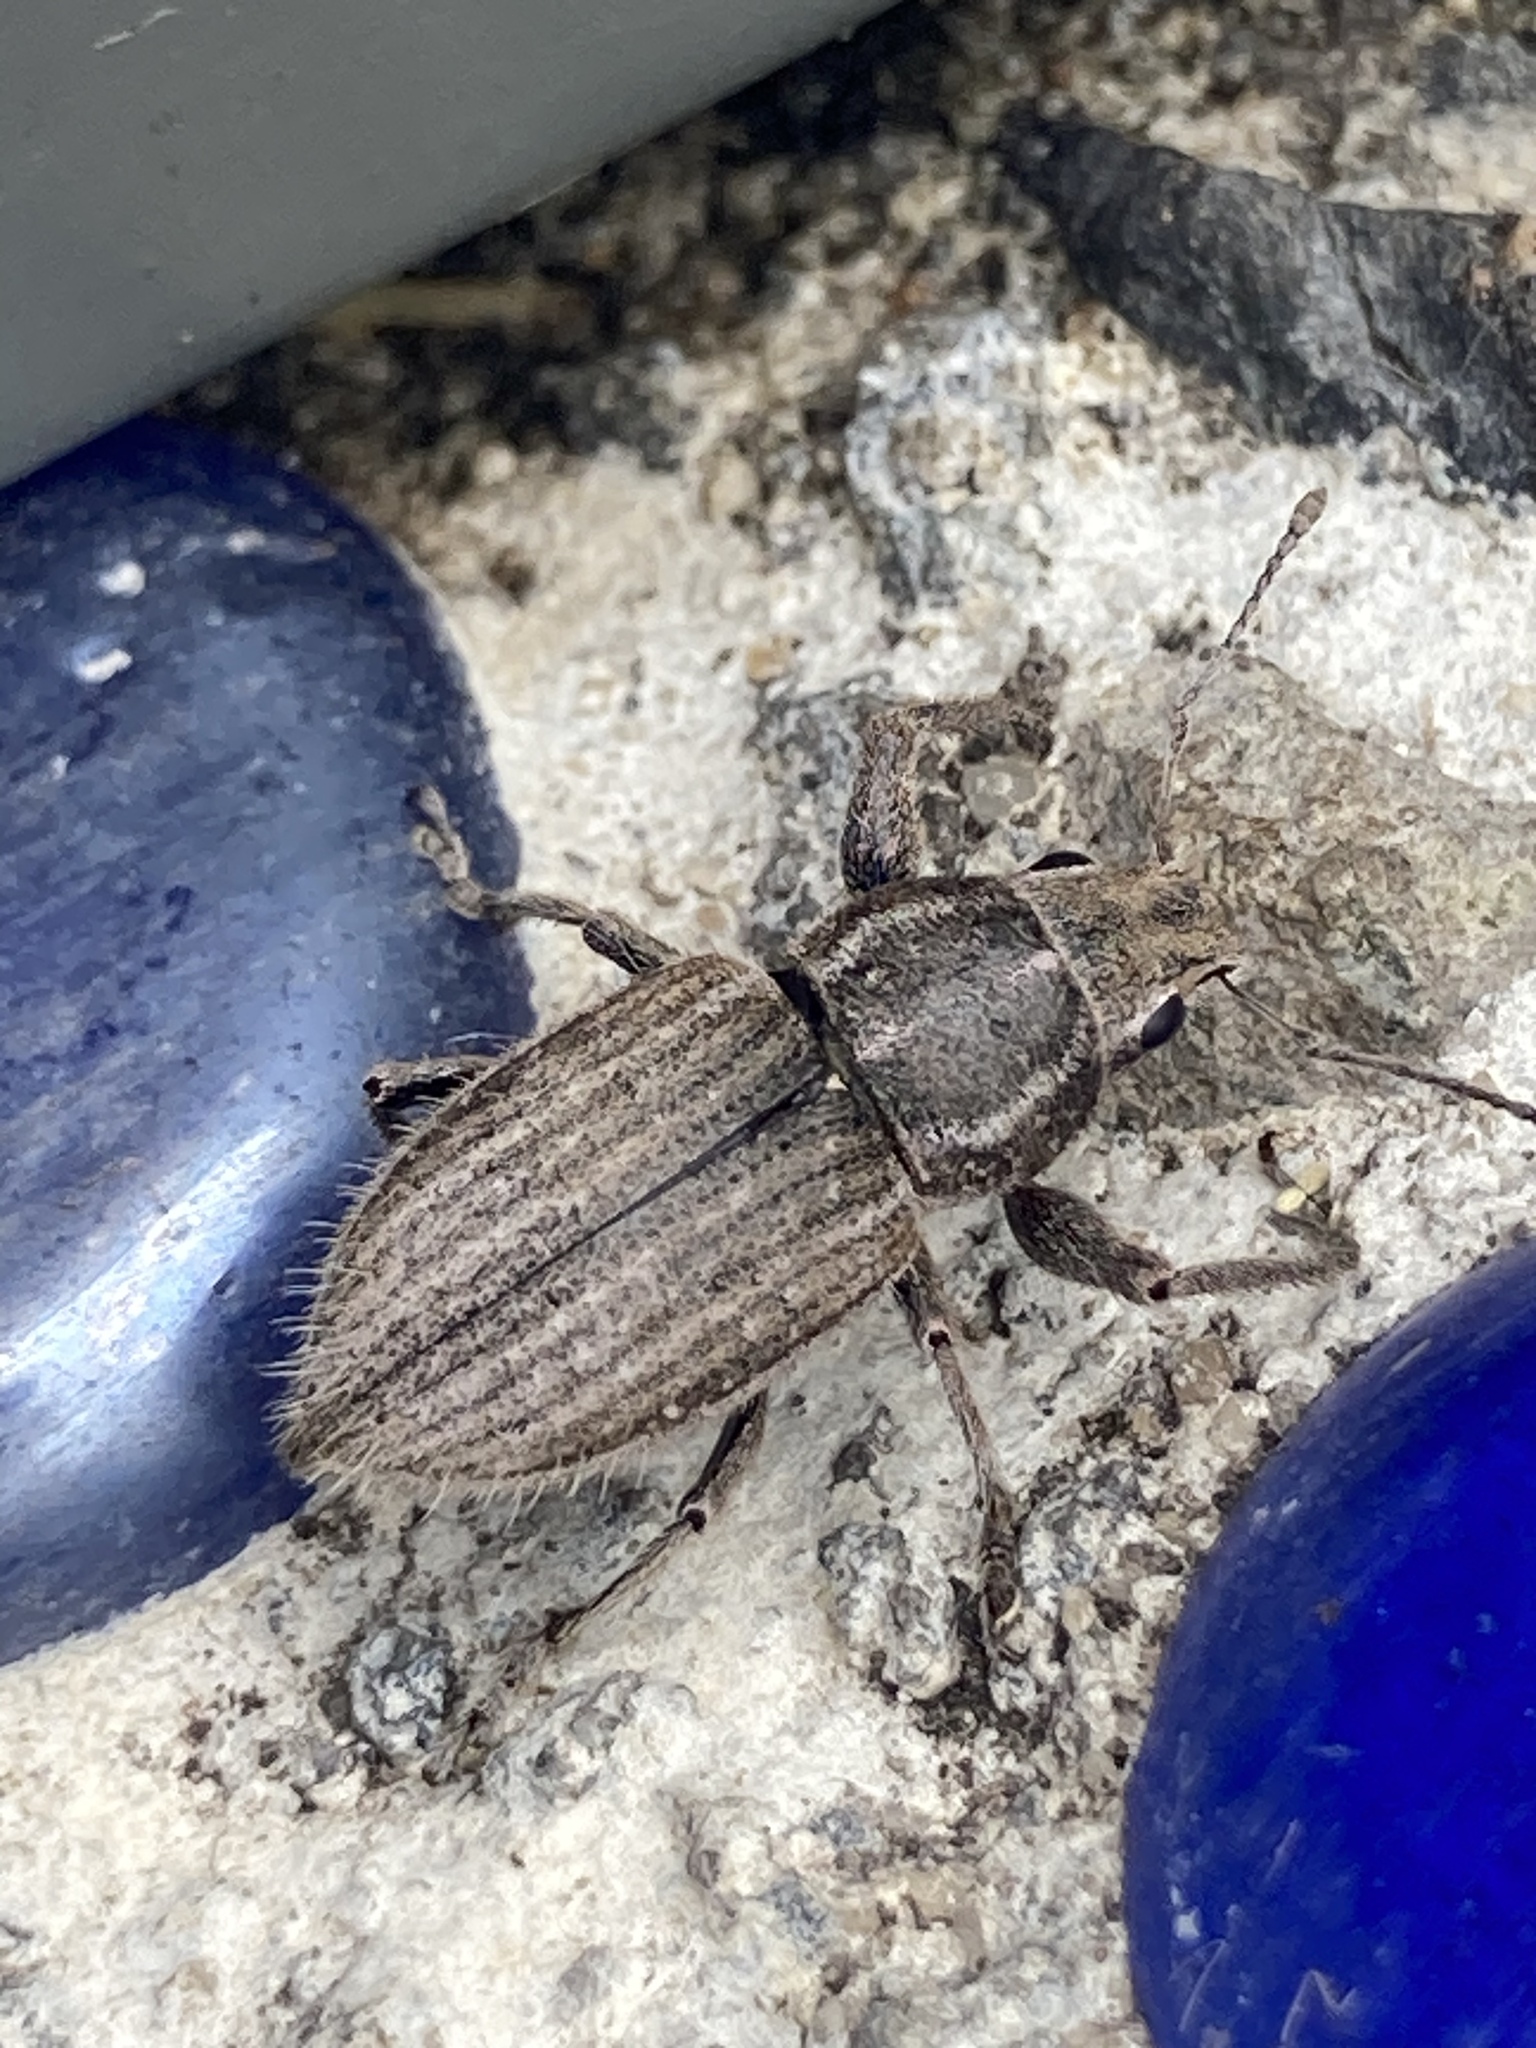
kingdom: Animalia
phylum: Arthropoda
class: Insecta
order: Coleoptera
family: Curculionidae
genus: Naupactus
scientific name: Naupactus leucoloma
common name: Whitefringed beetle
